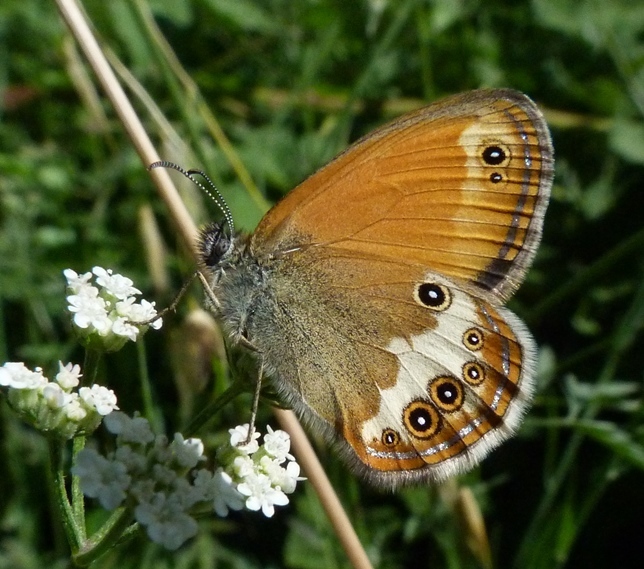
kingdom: Animalia
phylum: Arthropoda
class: Insecta
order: Lepidoptera
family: Nymphalidae
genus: Coenonympha
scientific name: Coenonympha arcania
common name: Pearly heath
